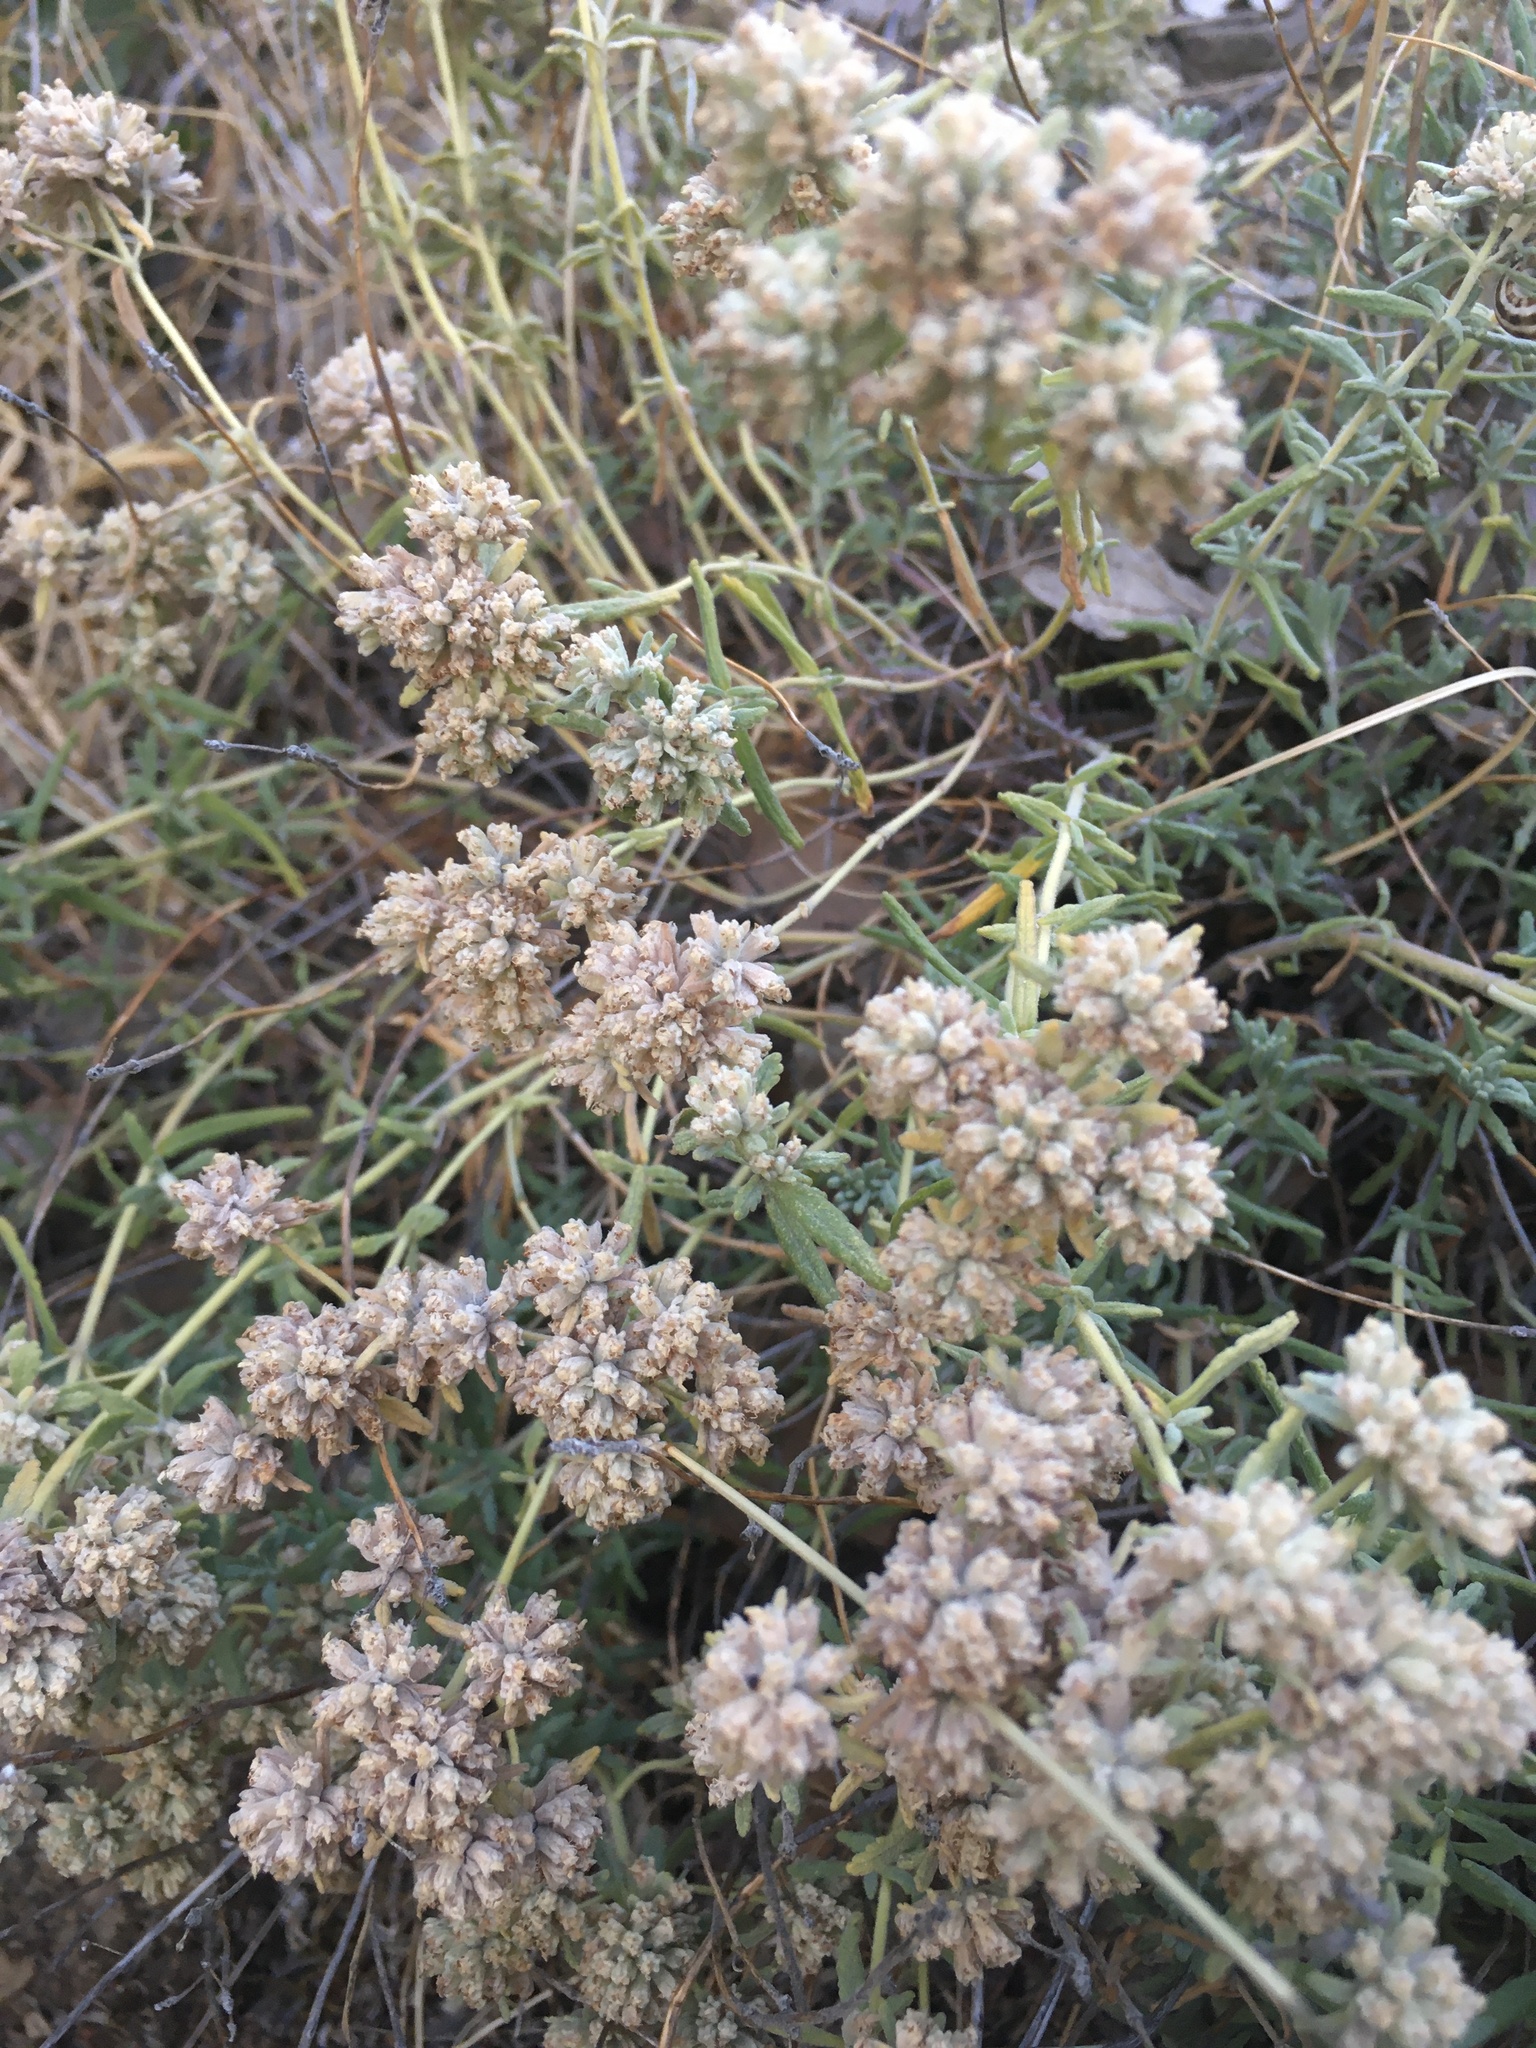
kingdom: Plantae
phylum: Tracheophyta
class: Magnoliopsida
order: Lamiales
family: Lamiaceae
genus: Teucrium
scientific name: Teucrium polium
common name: Poley
